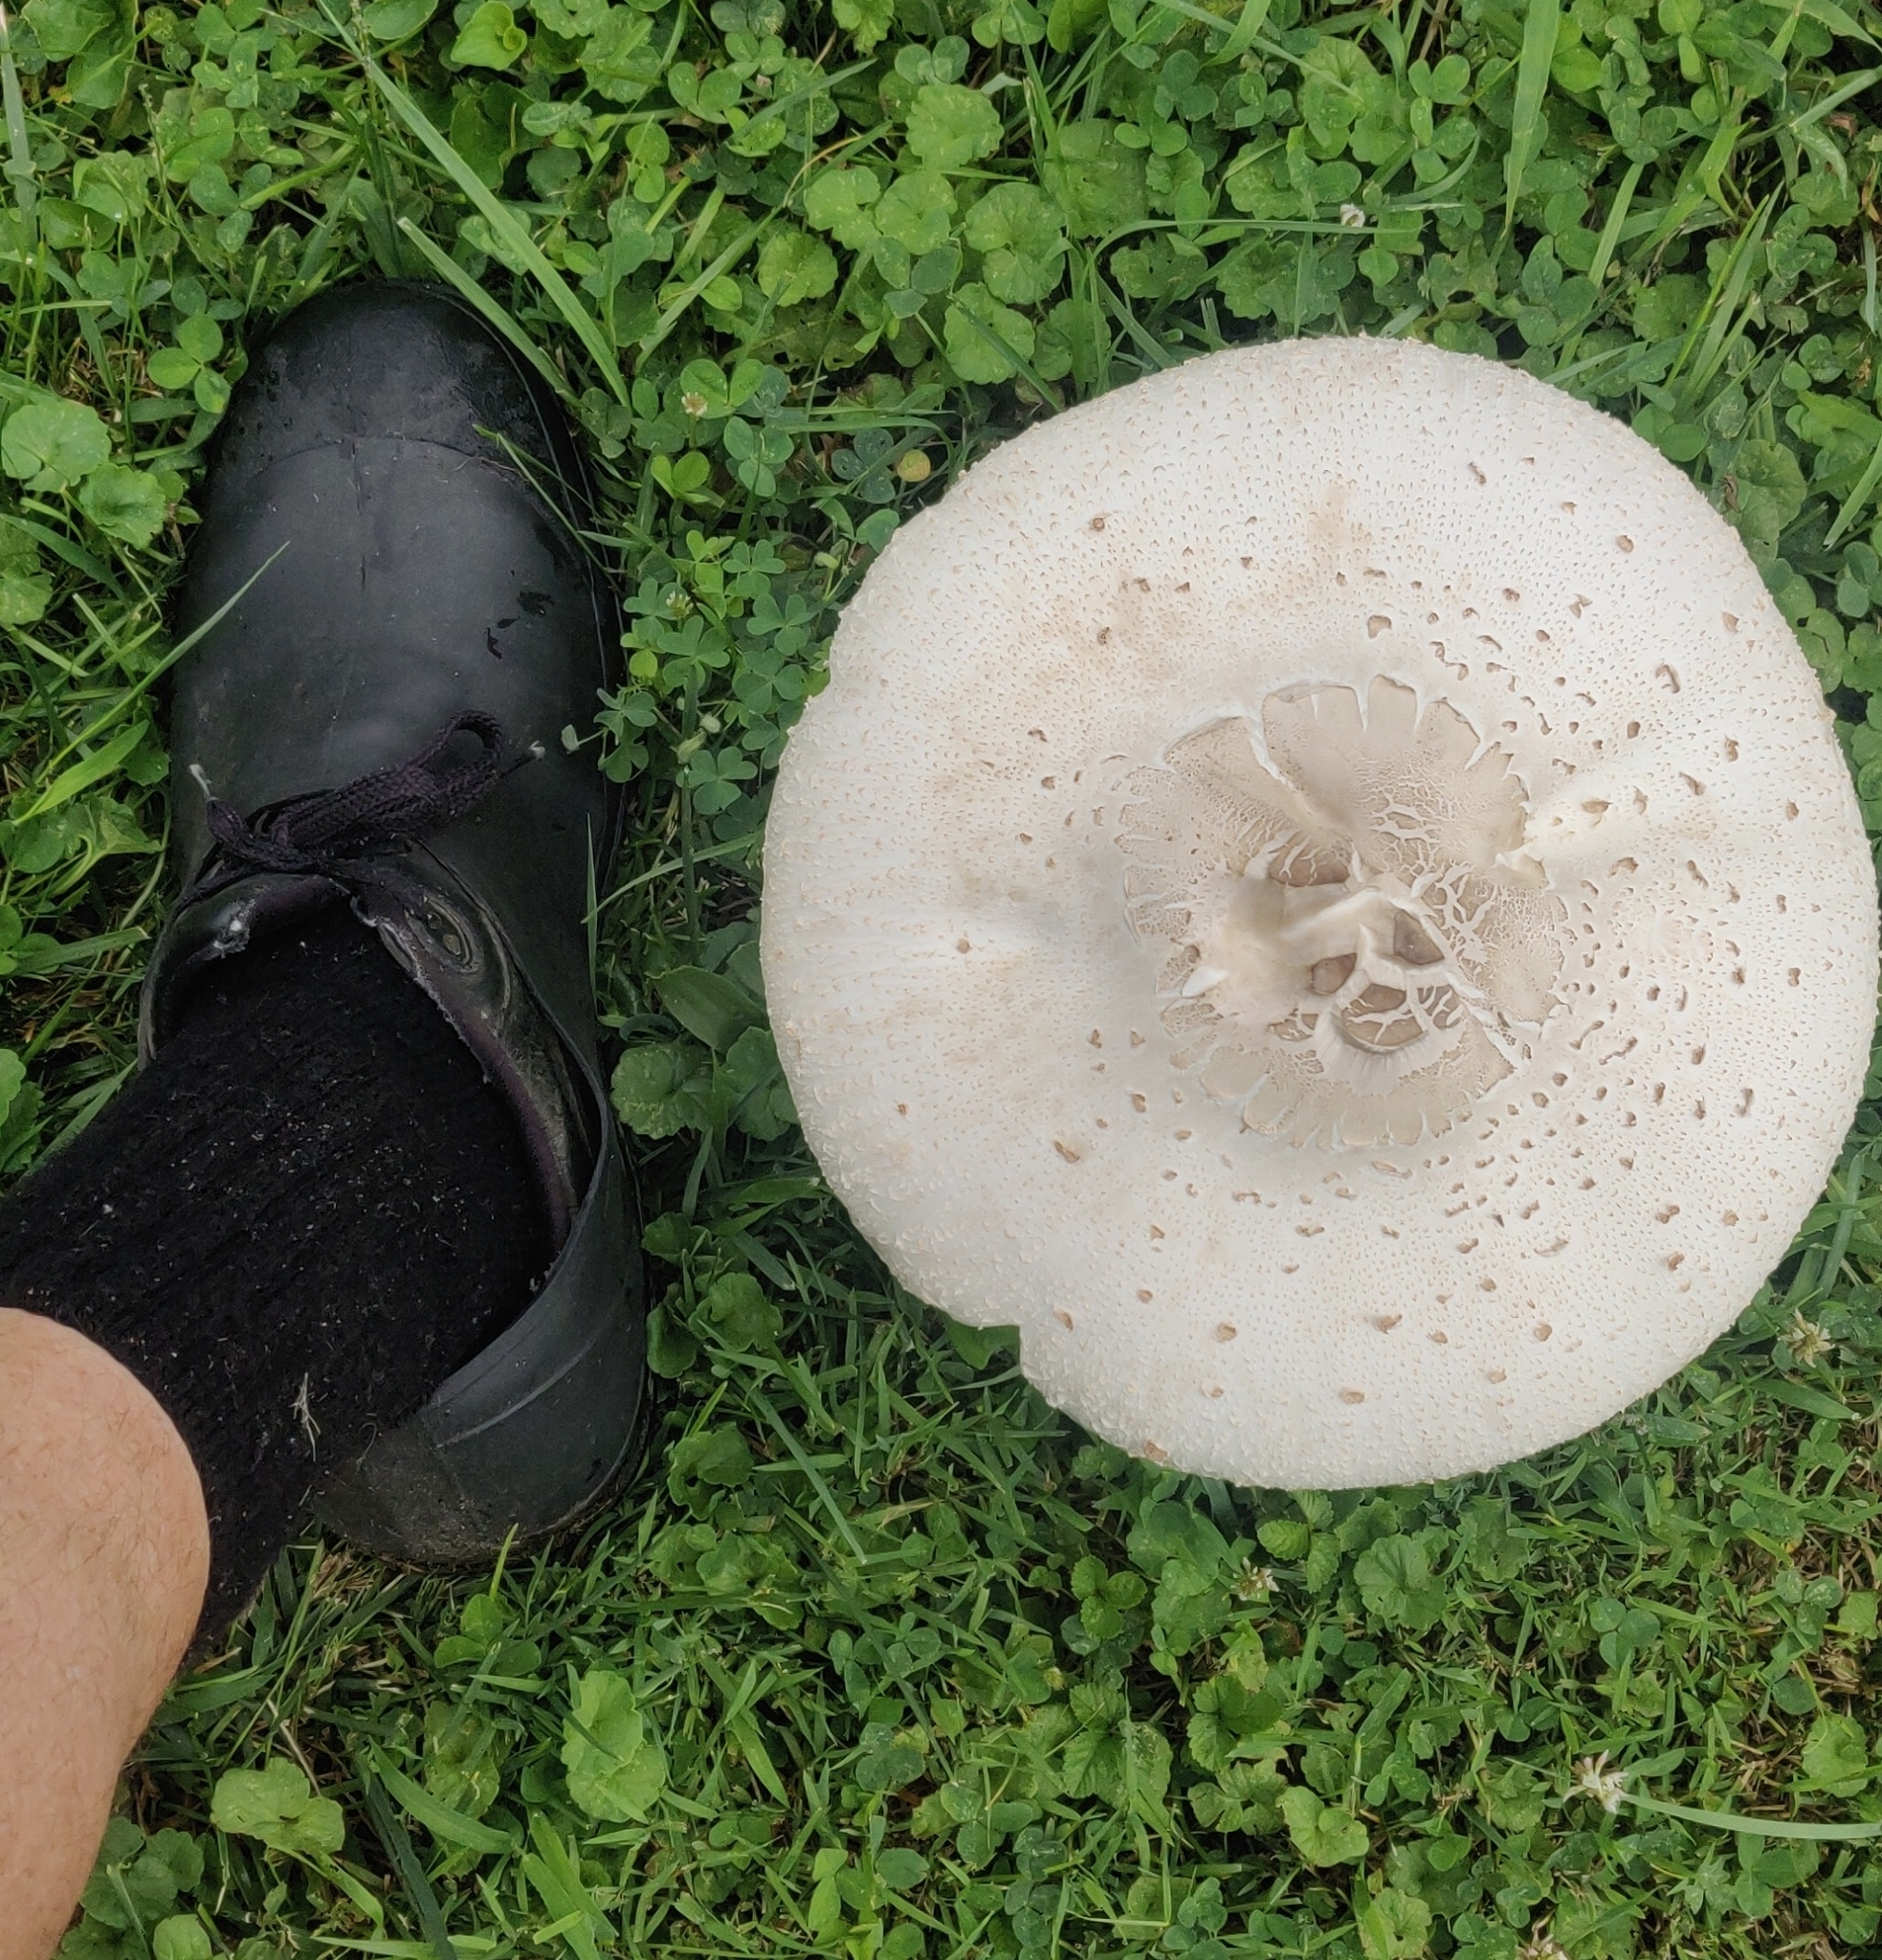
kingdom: Fungi
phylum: Basidiomycota
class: Agaricomycetes
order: Agaricales
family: Agaricaceae
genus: Chlorophyllum
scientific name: Chlorophyllum molybdites
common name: False parasol
